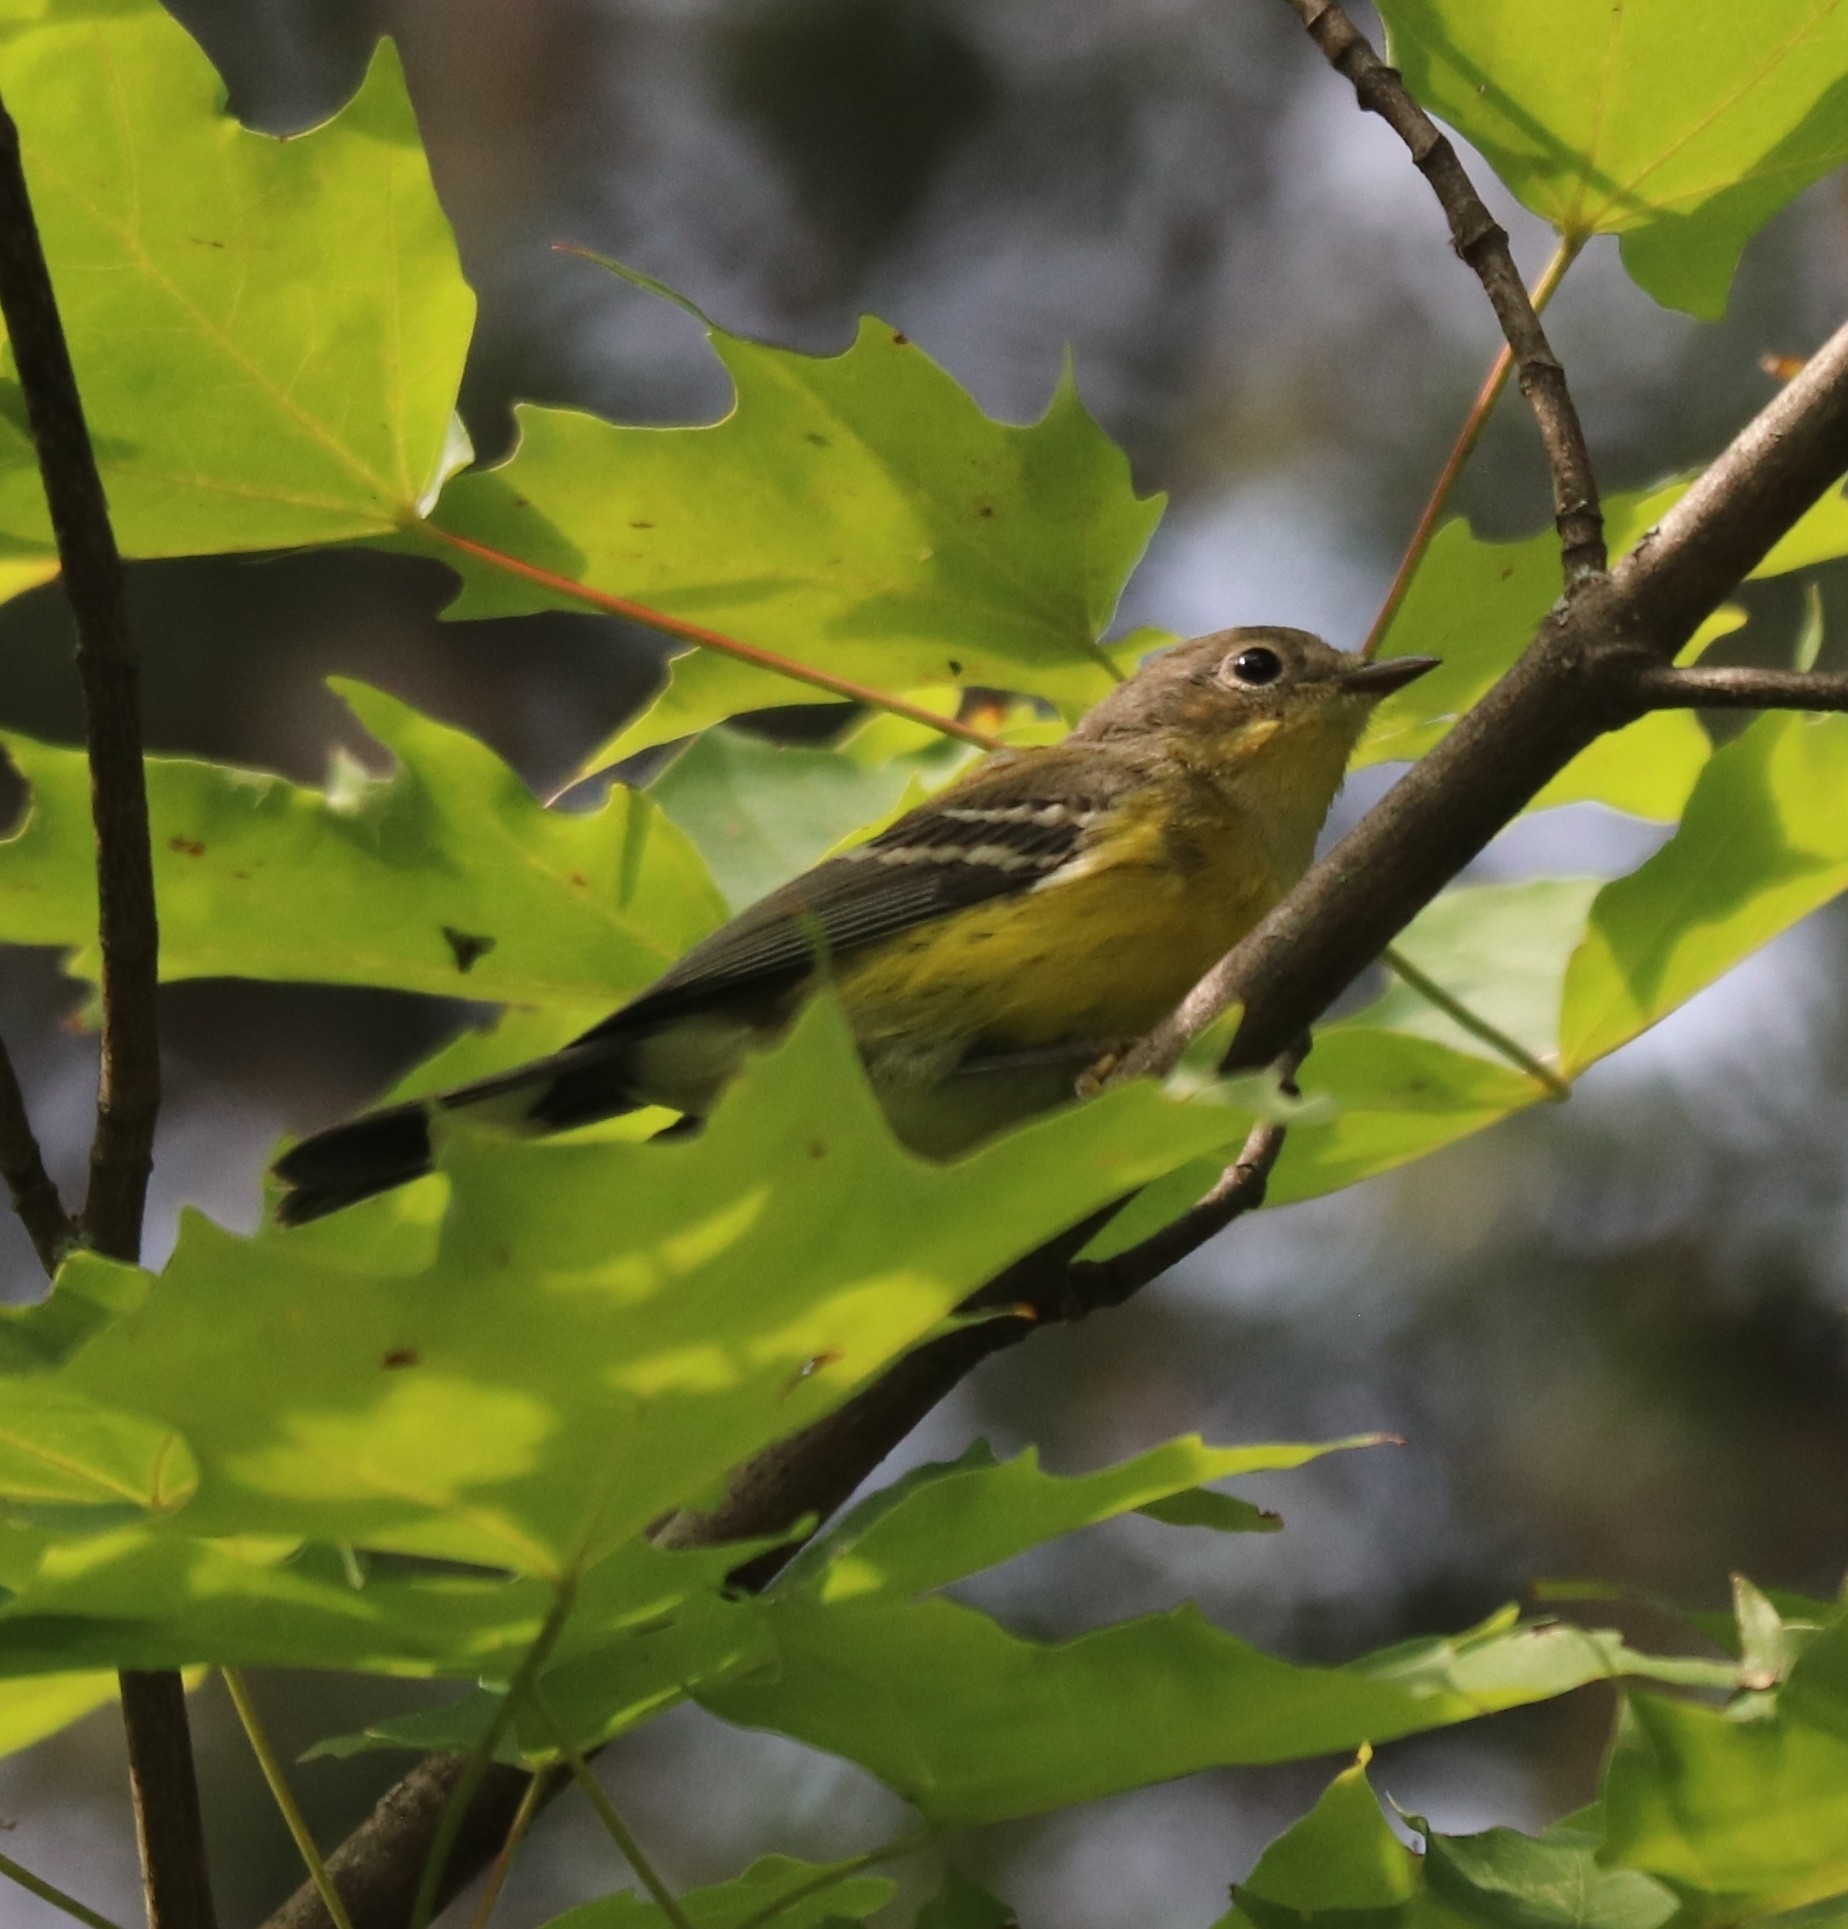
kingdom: Animalia
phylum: Chordata
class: Aves
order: Passeriformes
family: Parulidae
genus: Setophaga
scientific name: Setophaga magnolia
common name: Magnolia warbler
